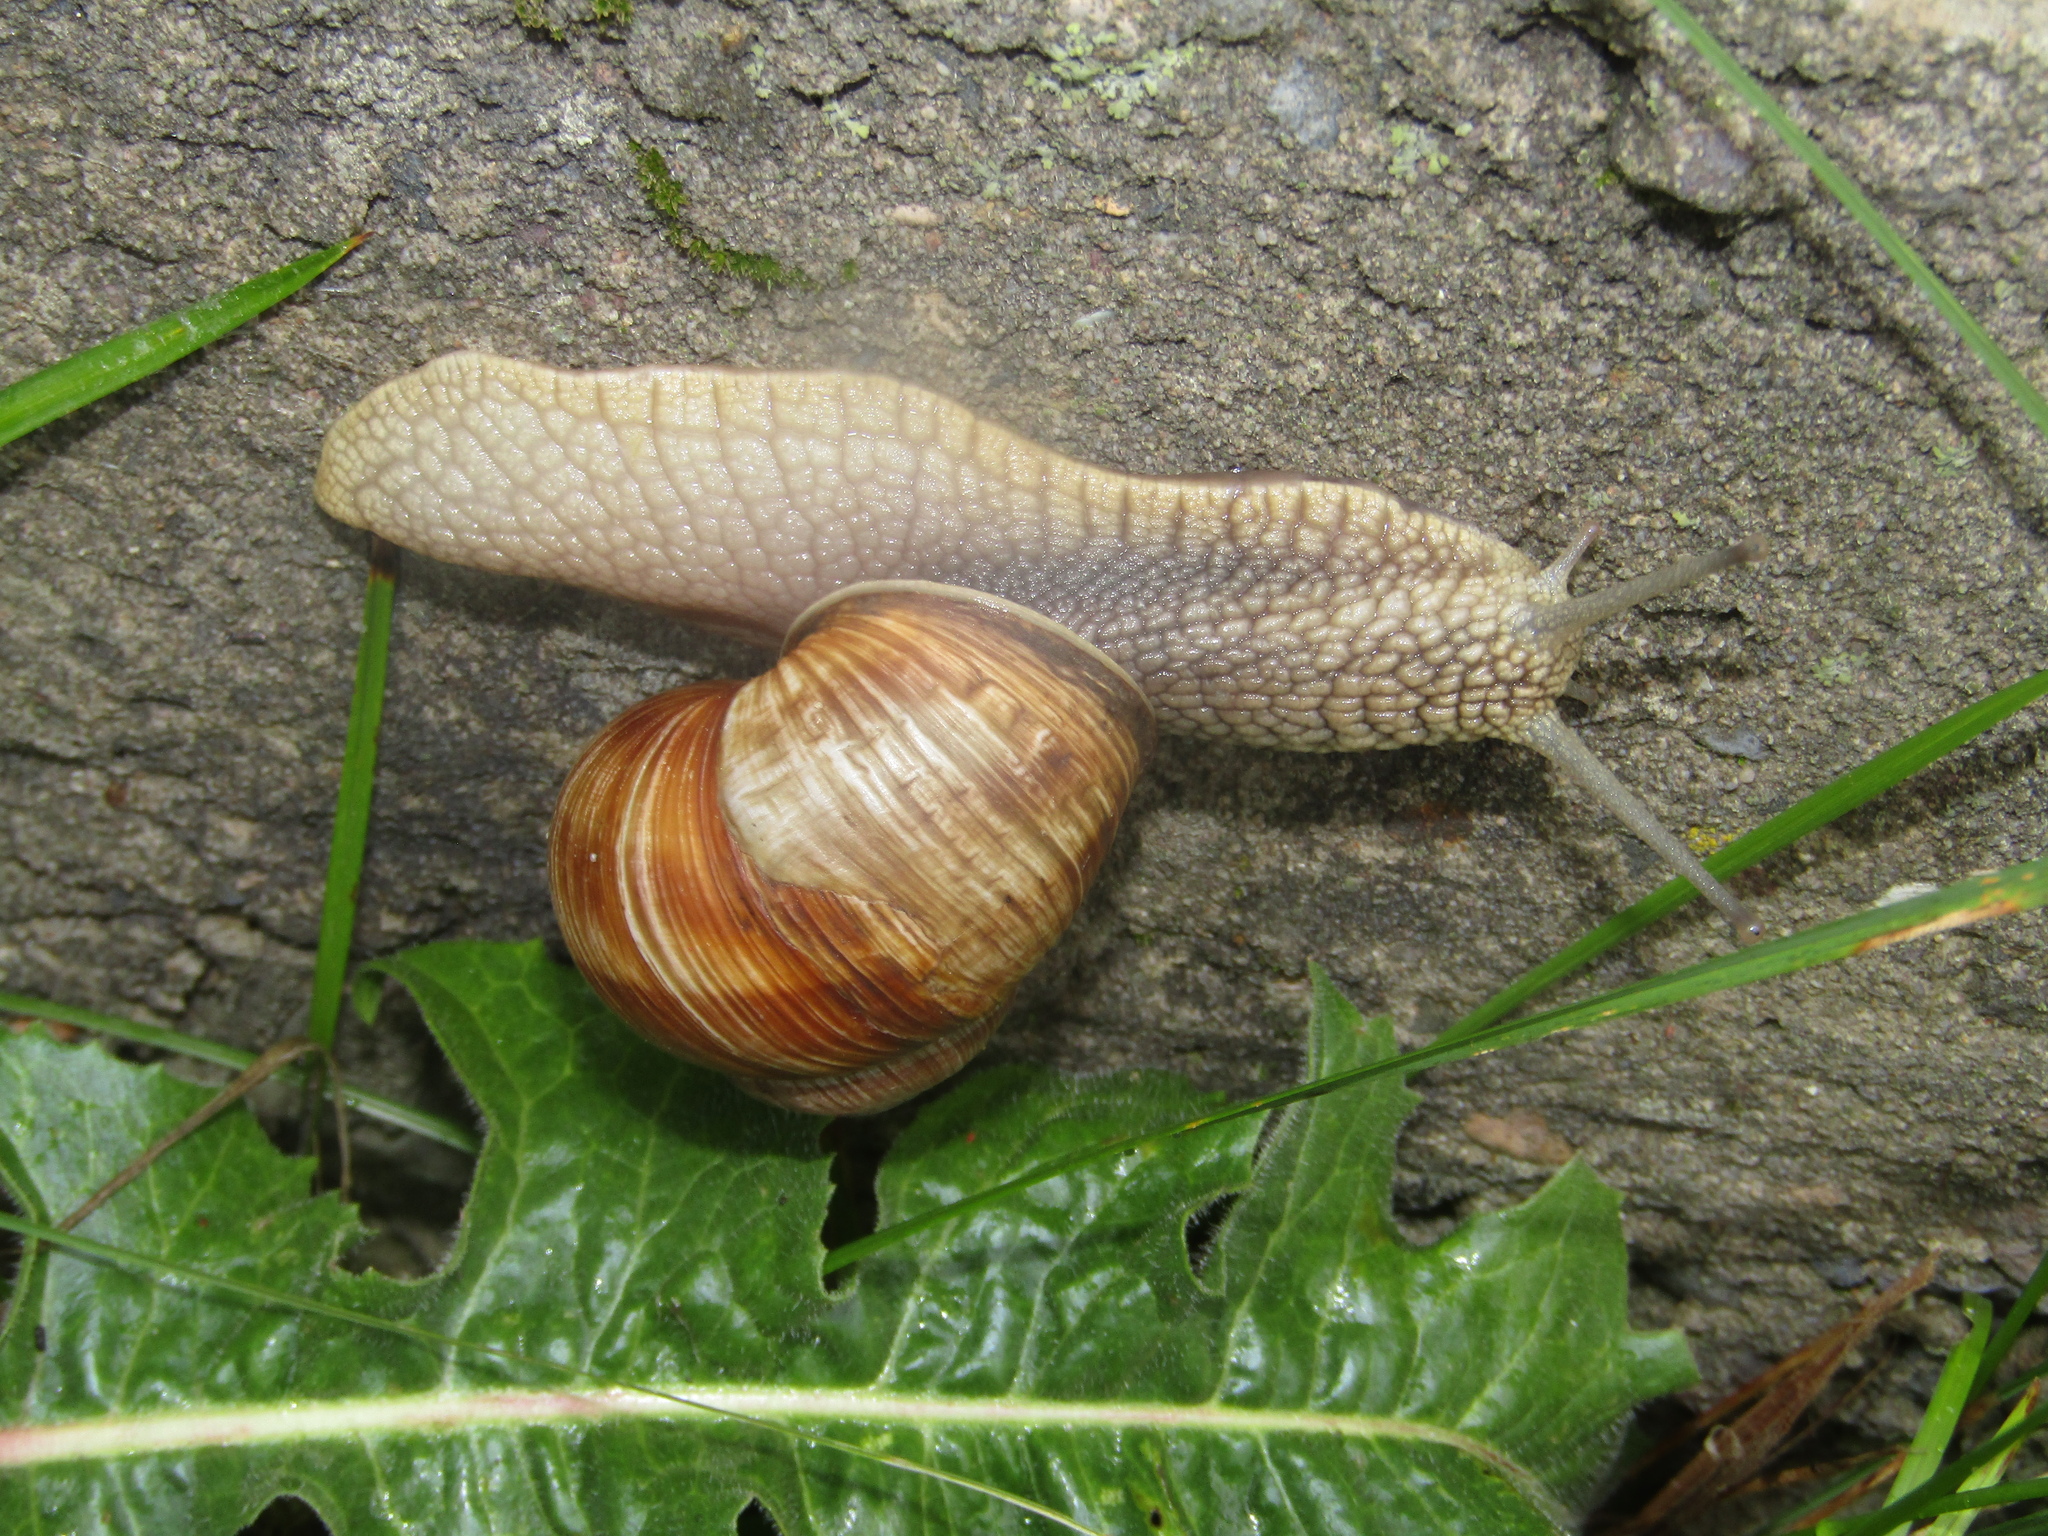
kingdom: Animalia
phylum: Mollusca
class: Gastropoda
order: Stylommatophora
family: Helicidae
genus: Helix
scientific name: Helix pomatia
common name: Roman snail
